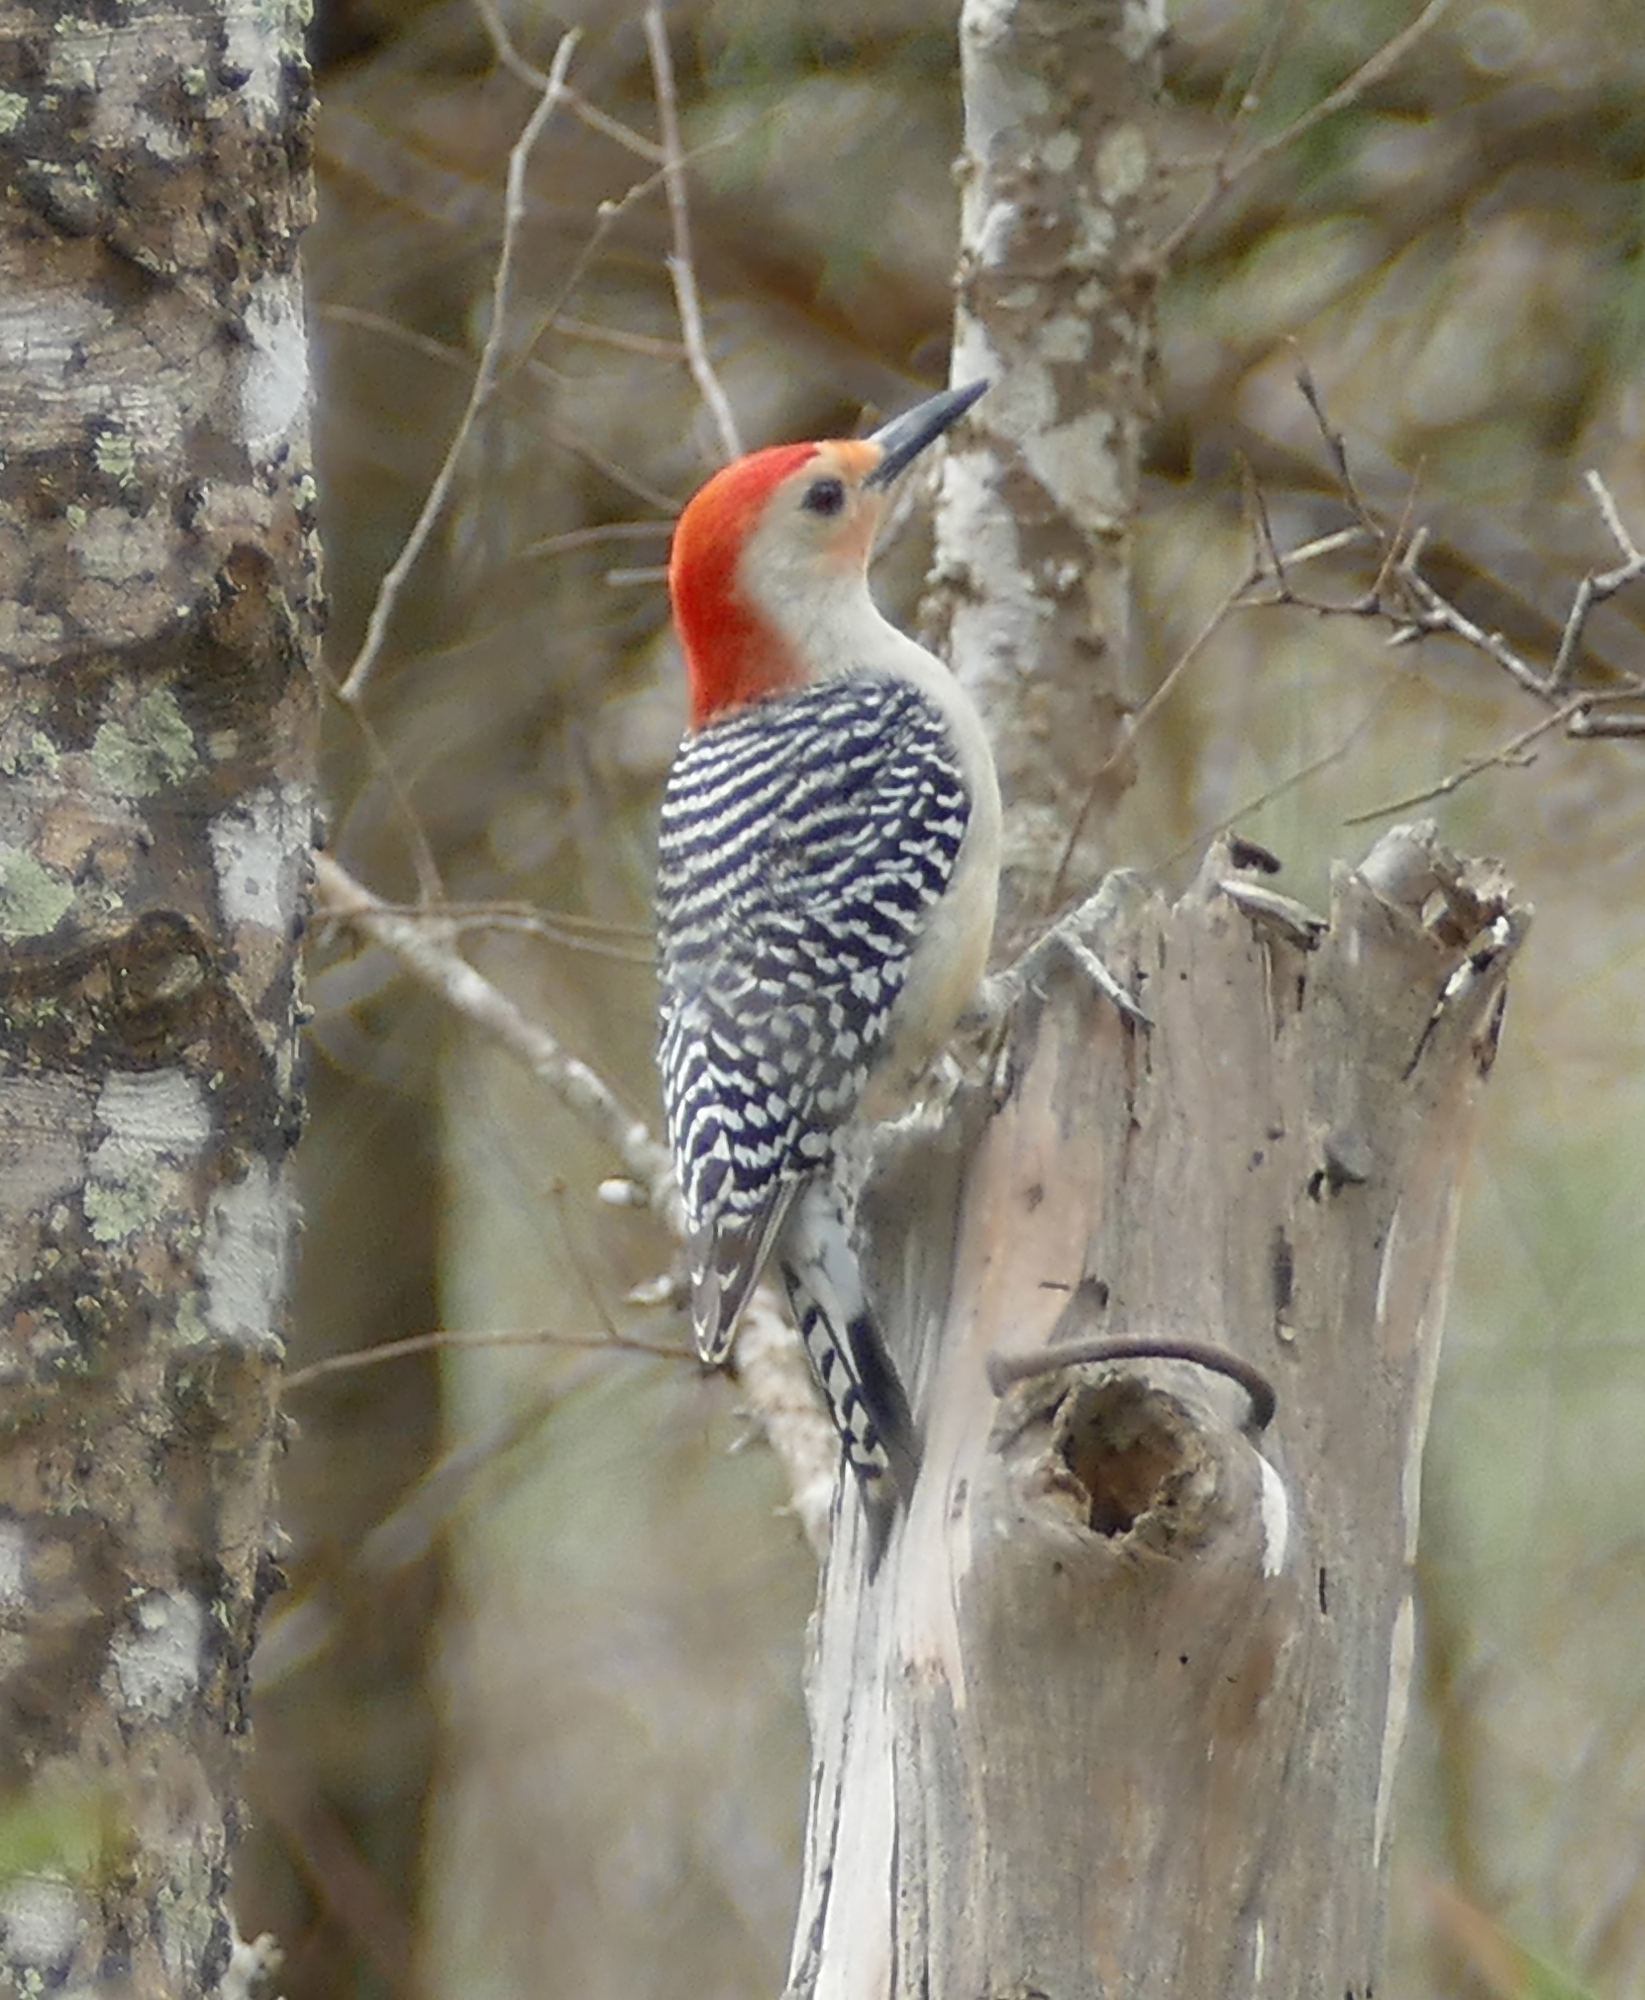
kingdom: Animalia
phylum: Chordata
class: Aves
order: Piciformes
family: Picidae
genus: Melanerpes
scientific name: Melanerpes carolinus
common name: Red-bellied woodpecker
